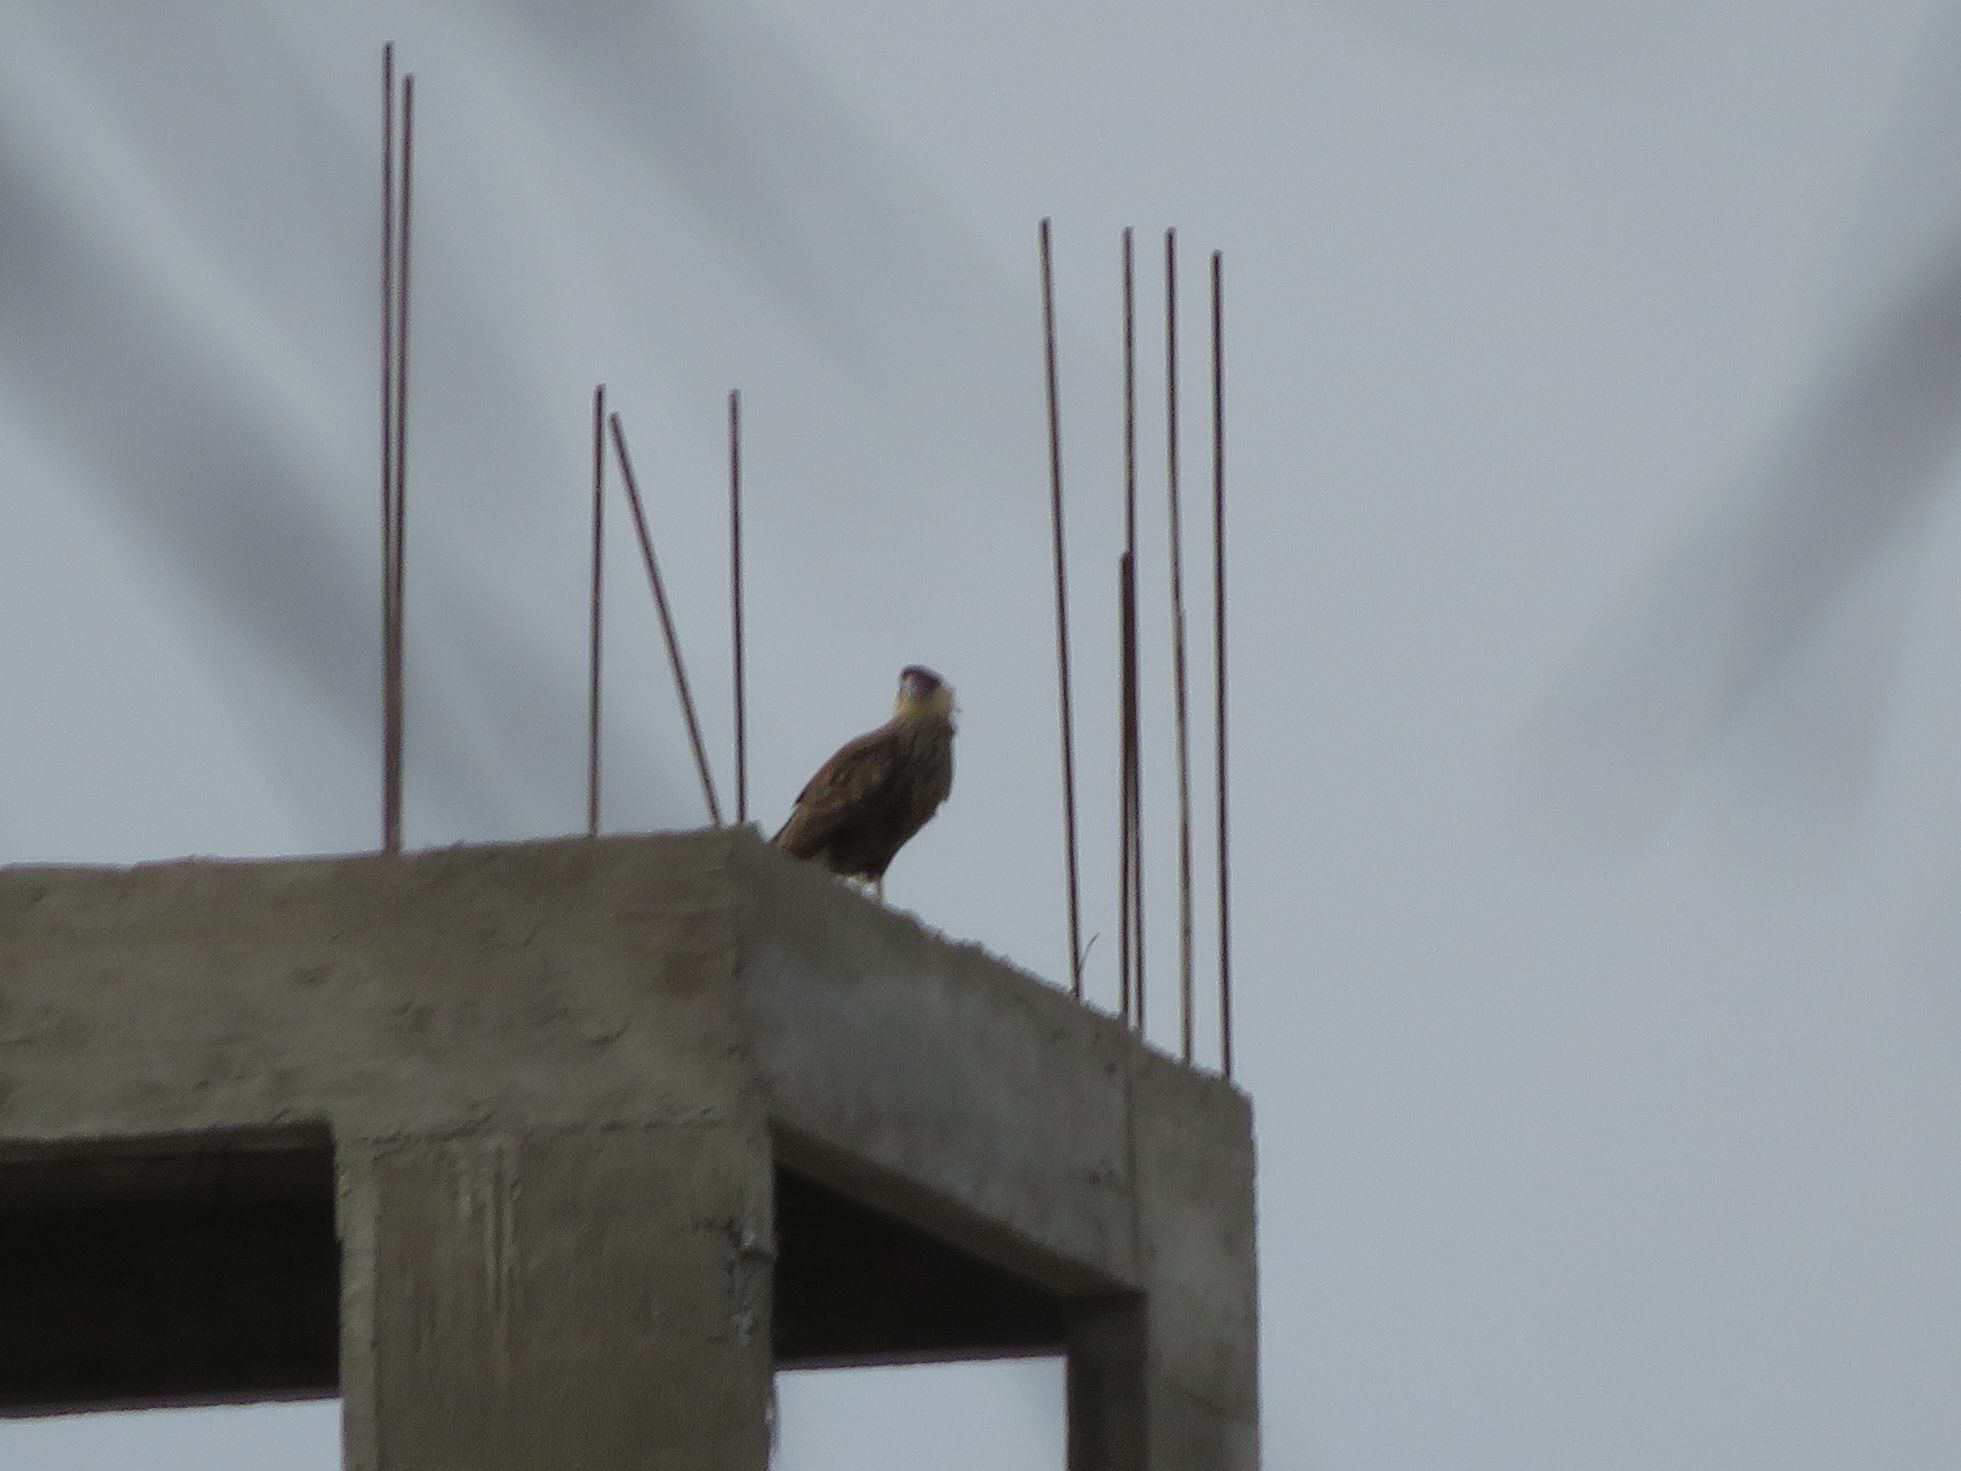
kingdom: Animalia
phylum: Chordata
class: Aves
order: Falconiformes
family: Falconidae
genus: Caracara
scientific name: Caracara plancus
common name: Southern caracara
